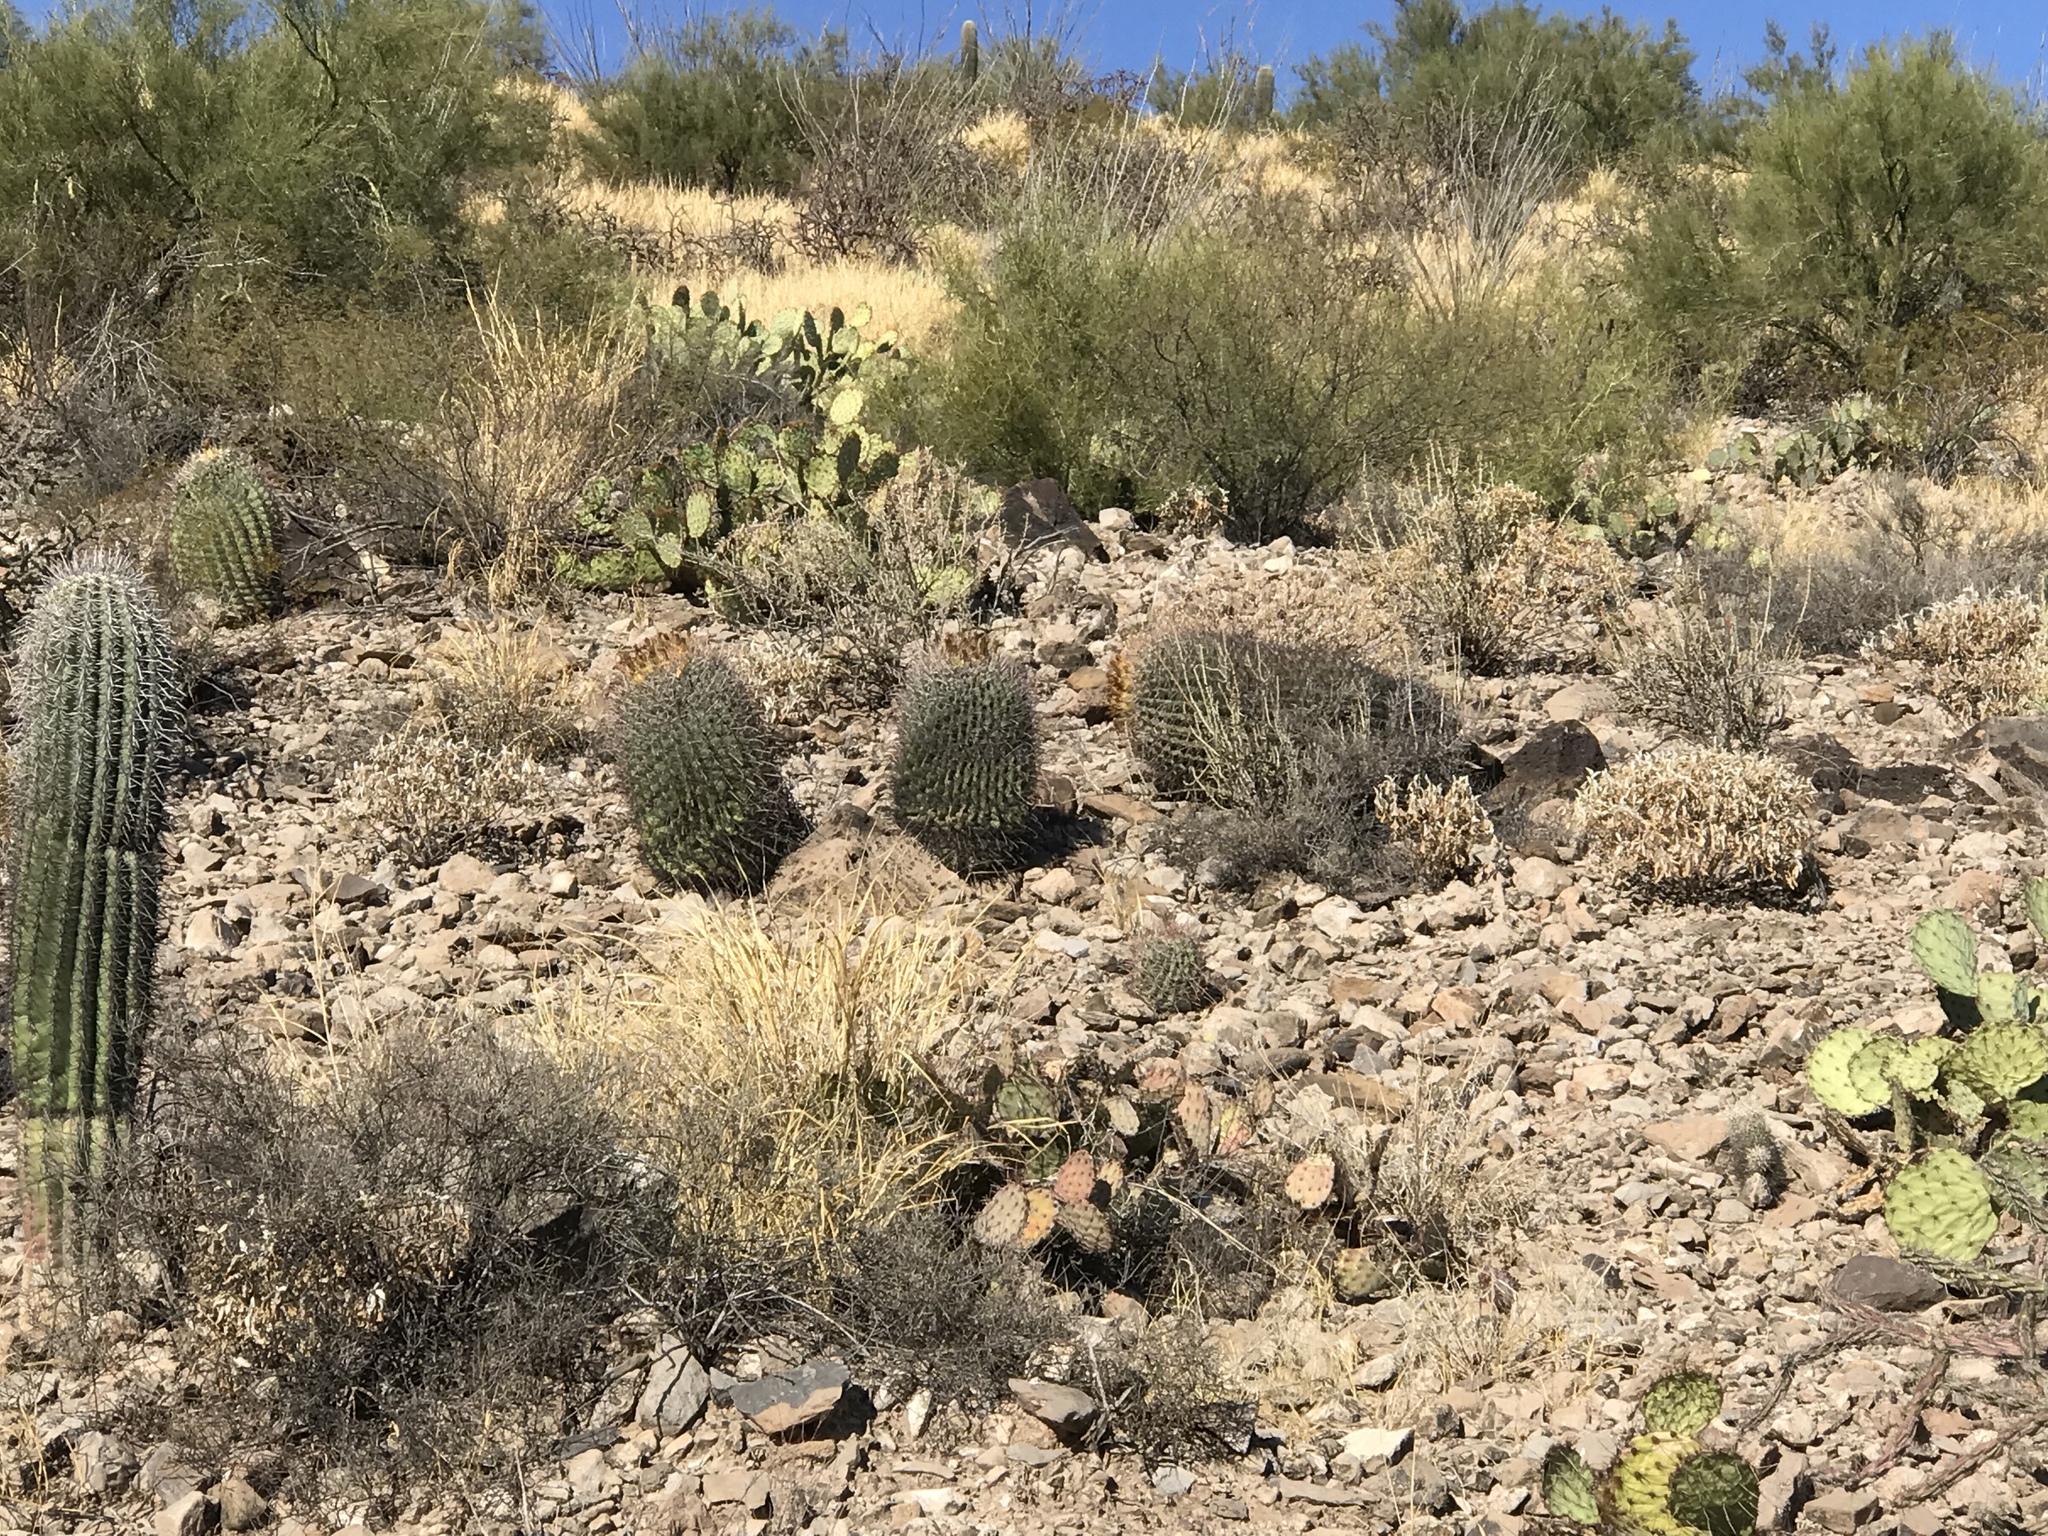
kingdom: Plantae
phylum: Tracheophyta
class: Magnoliopsida
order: Caryophyllales
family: Cactaceae
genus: Ferocactus
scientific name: Ferocactus wislizeni
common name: Candy barrel cactus
